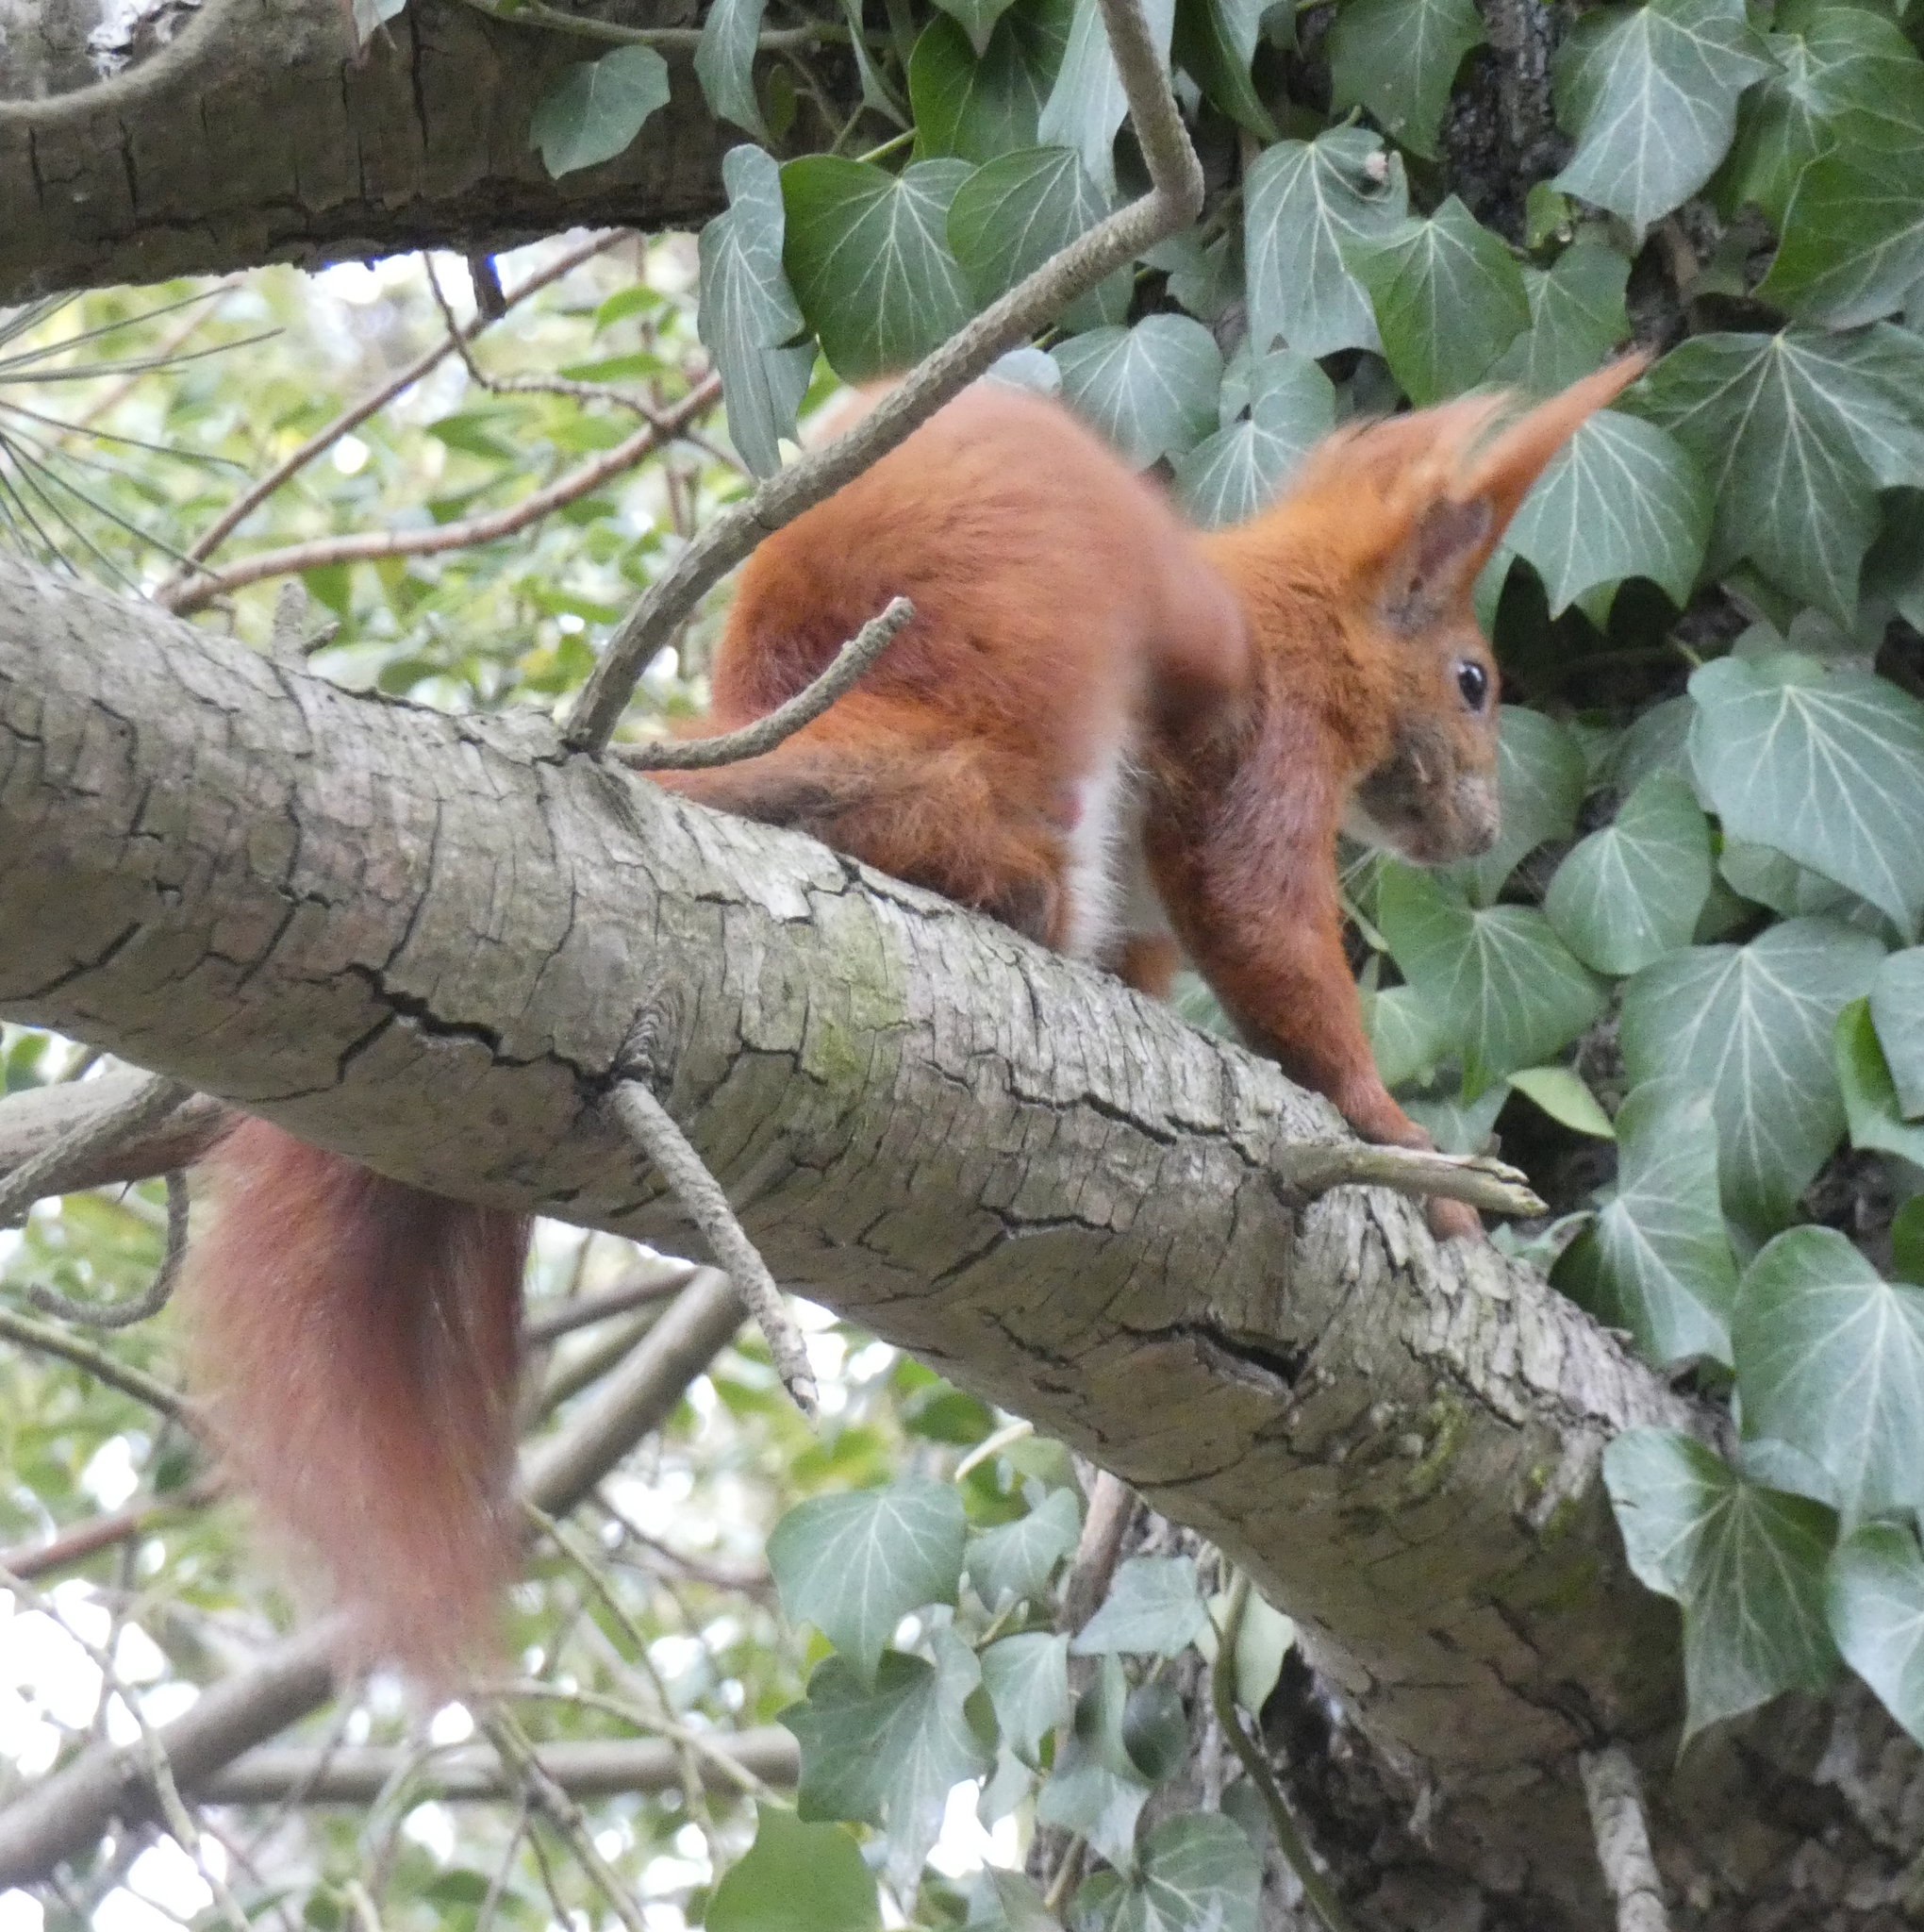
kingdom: Animalia
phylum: Chordata
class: Mammalia
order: Rodentia
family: Sciuridae
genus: Sciurus
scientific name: Sciurus vulgaris
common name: Eurasian red squirrel
